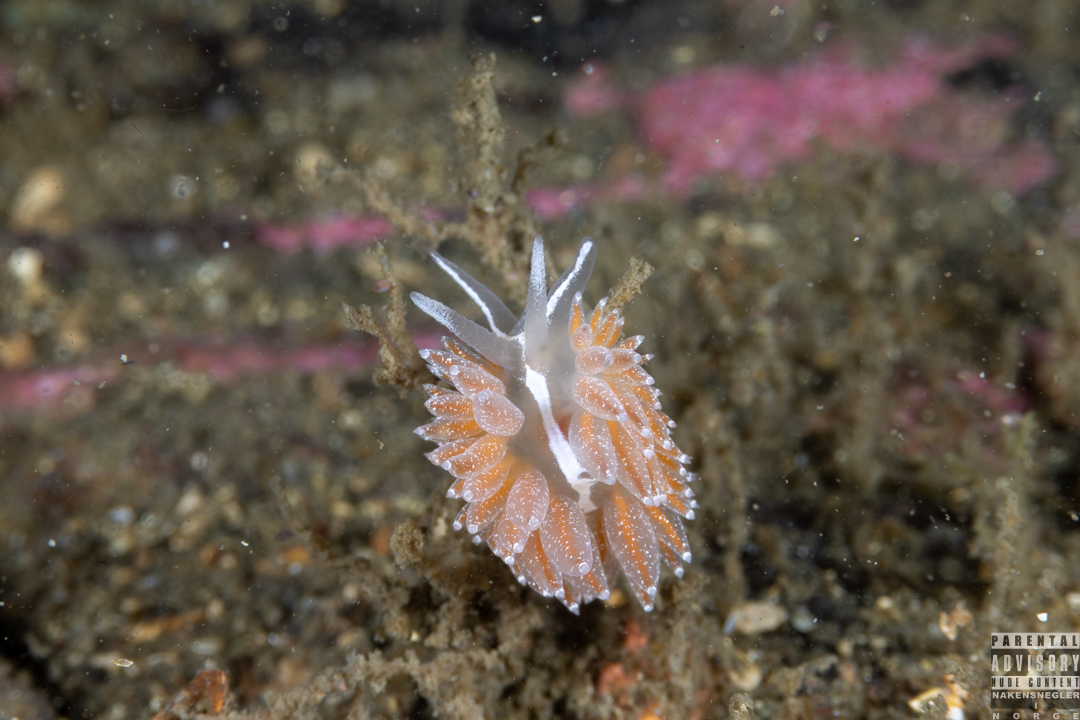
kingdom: Animalia
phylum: Mollusca
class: Gastropoda
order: Nudibranchia
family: Coryphellidae
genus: Coryphella
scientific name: Coryphella monicae
